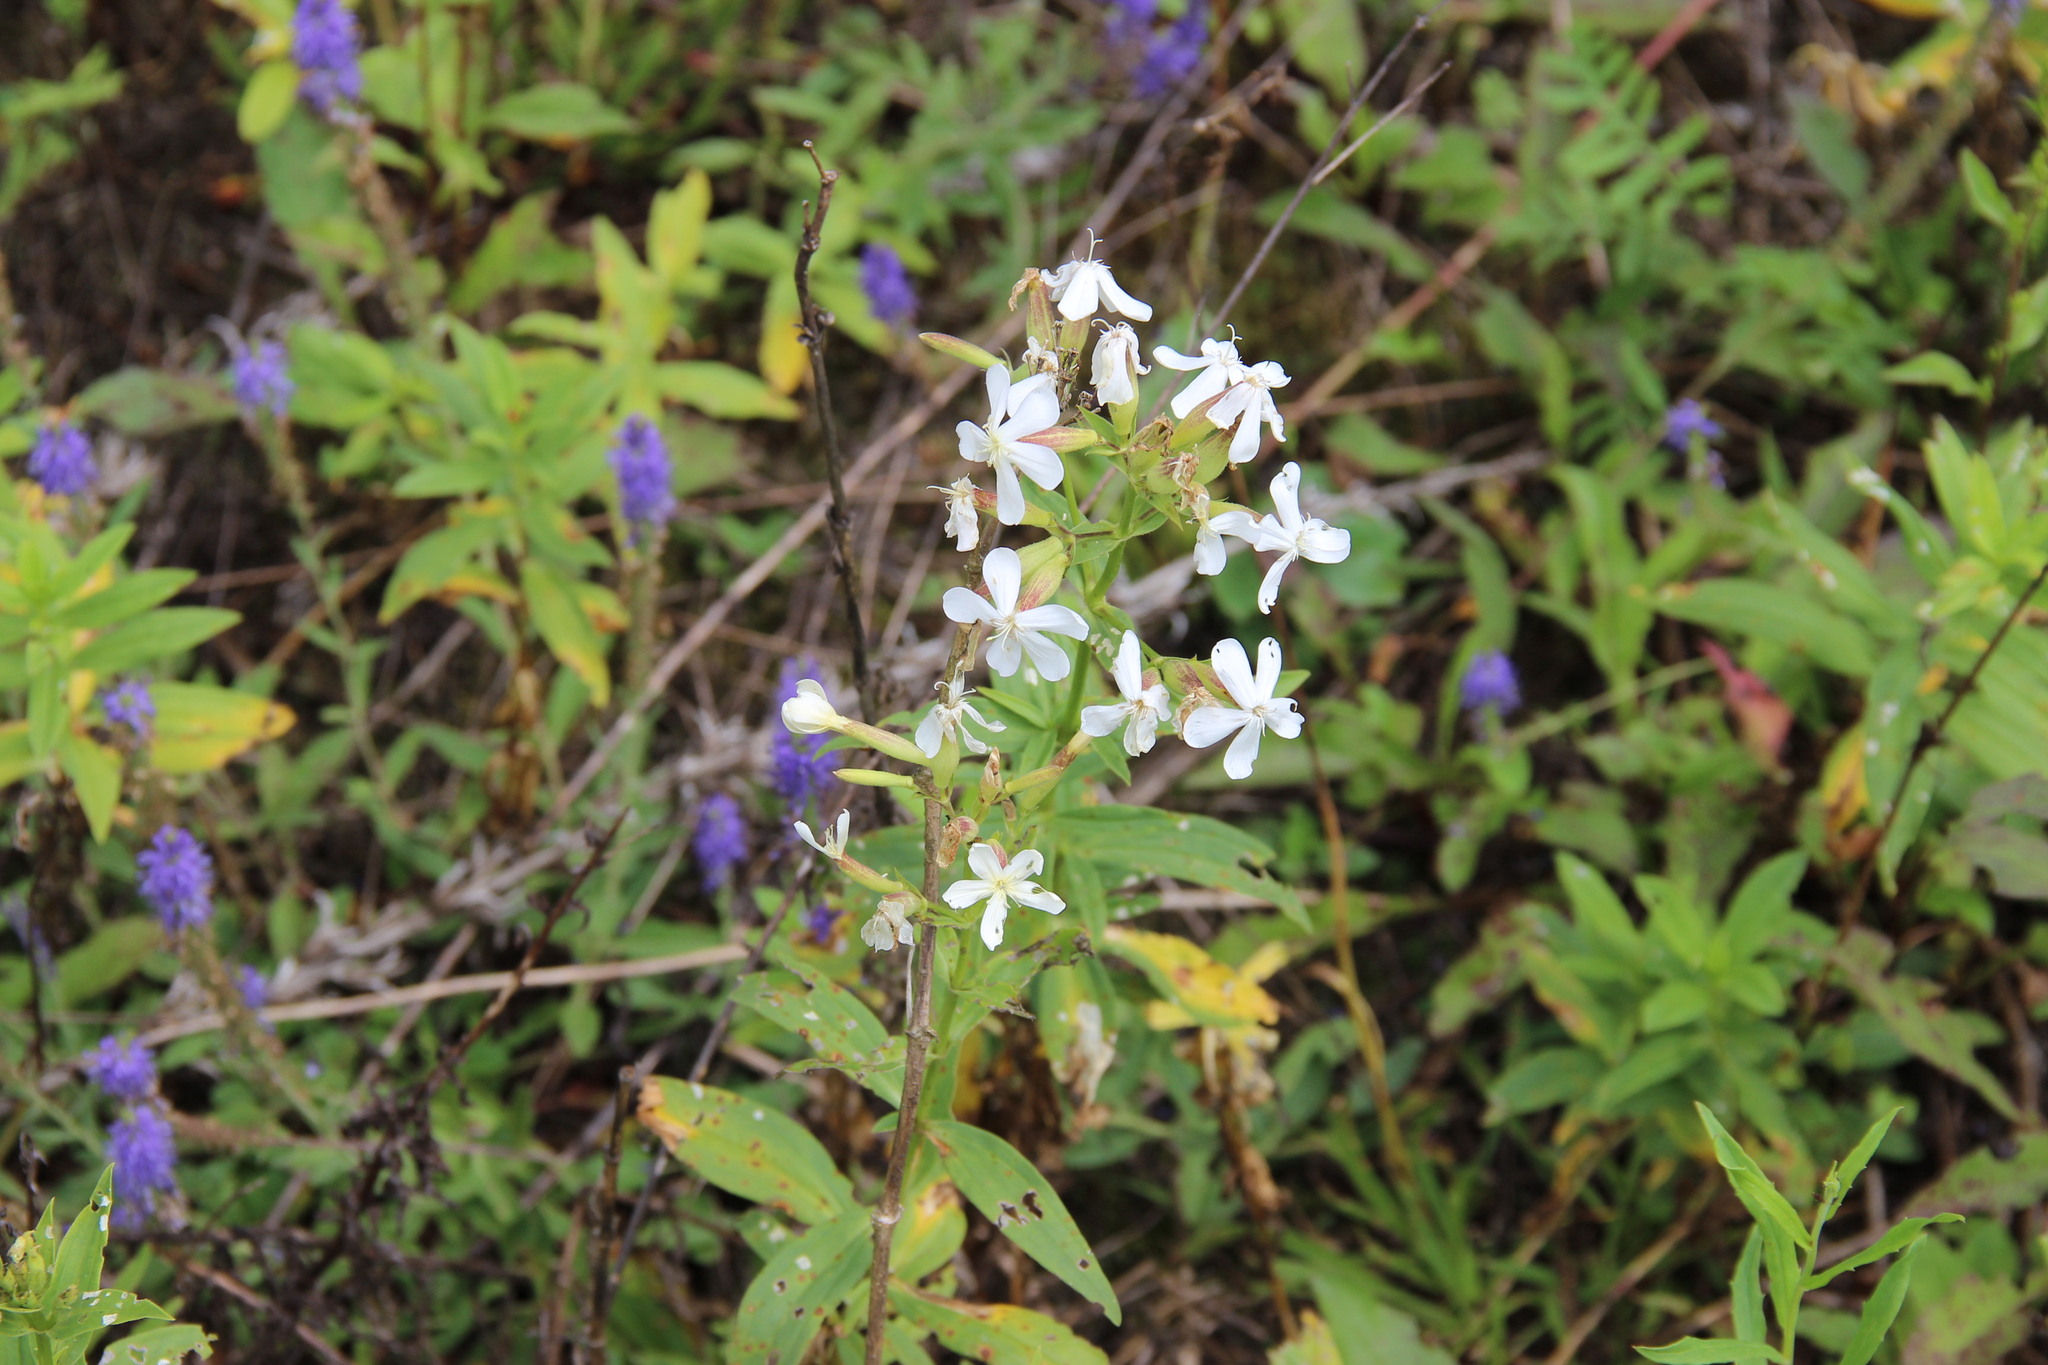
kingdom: Plantae
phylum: Tracheophyta
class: Magnoliopsida
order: Caryophyllales
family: Caryophyllaceae
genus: Saponaria
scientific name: Saponaria officinalis
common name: Soapwort
